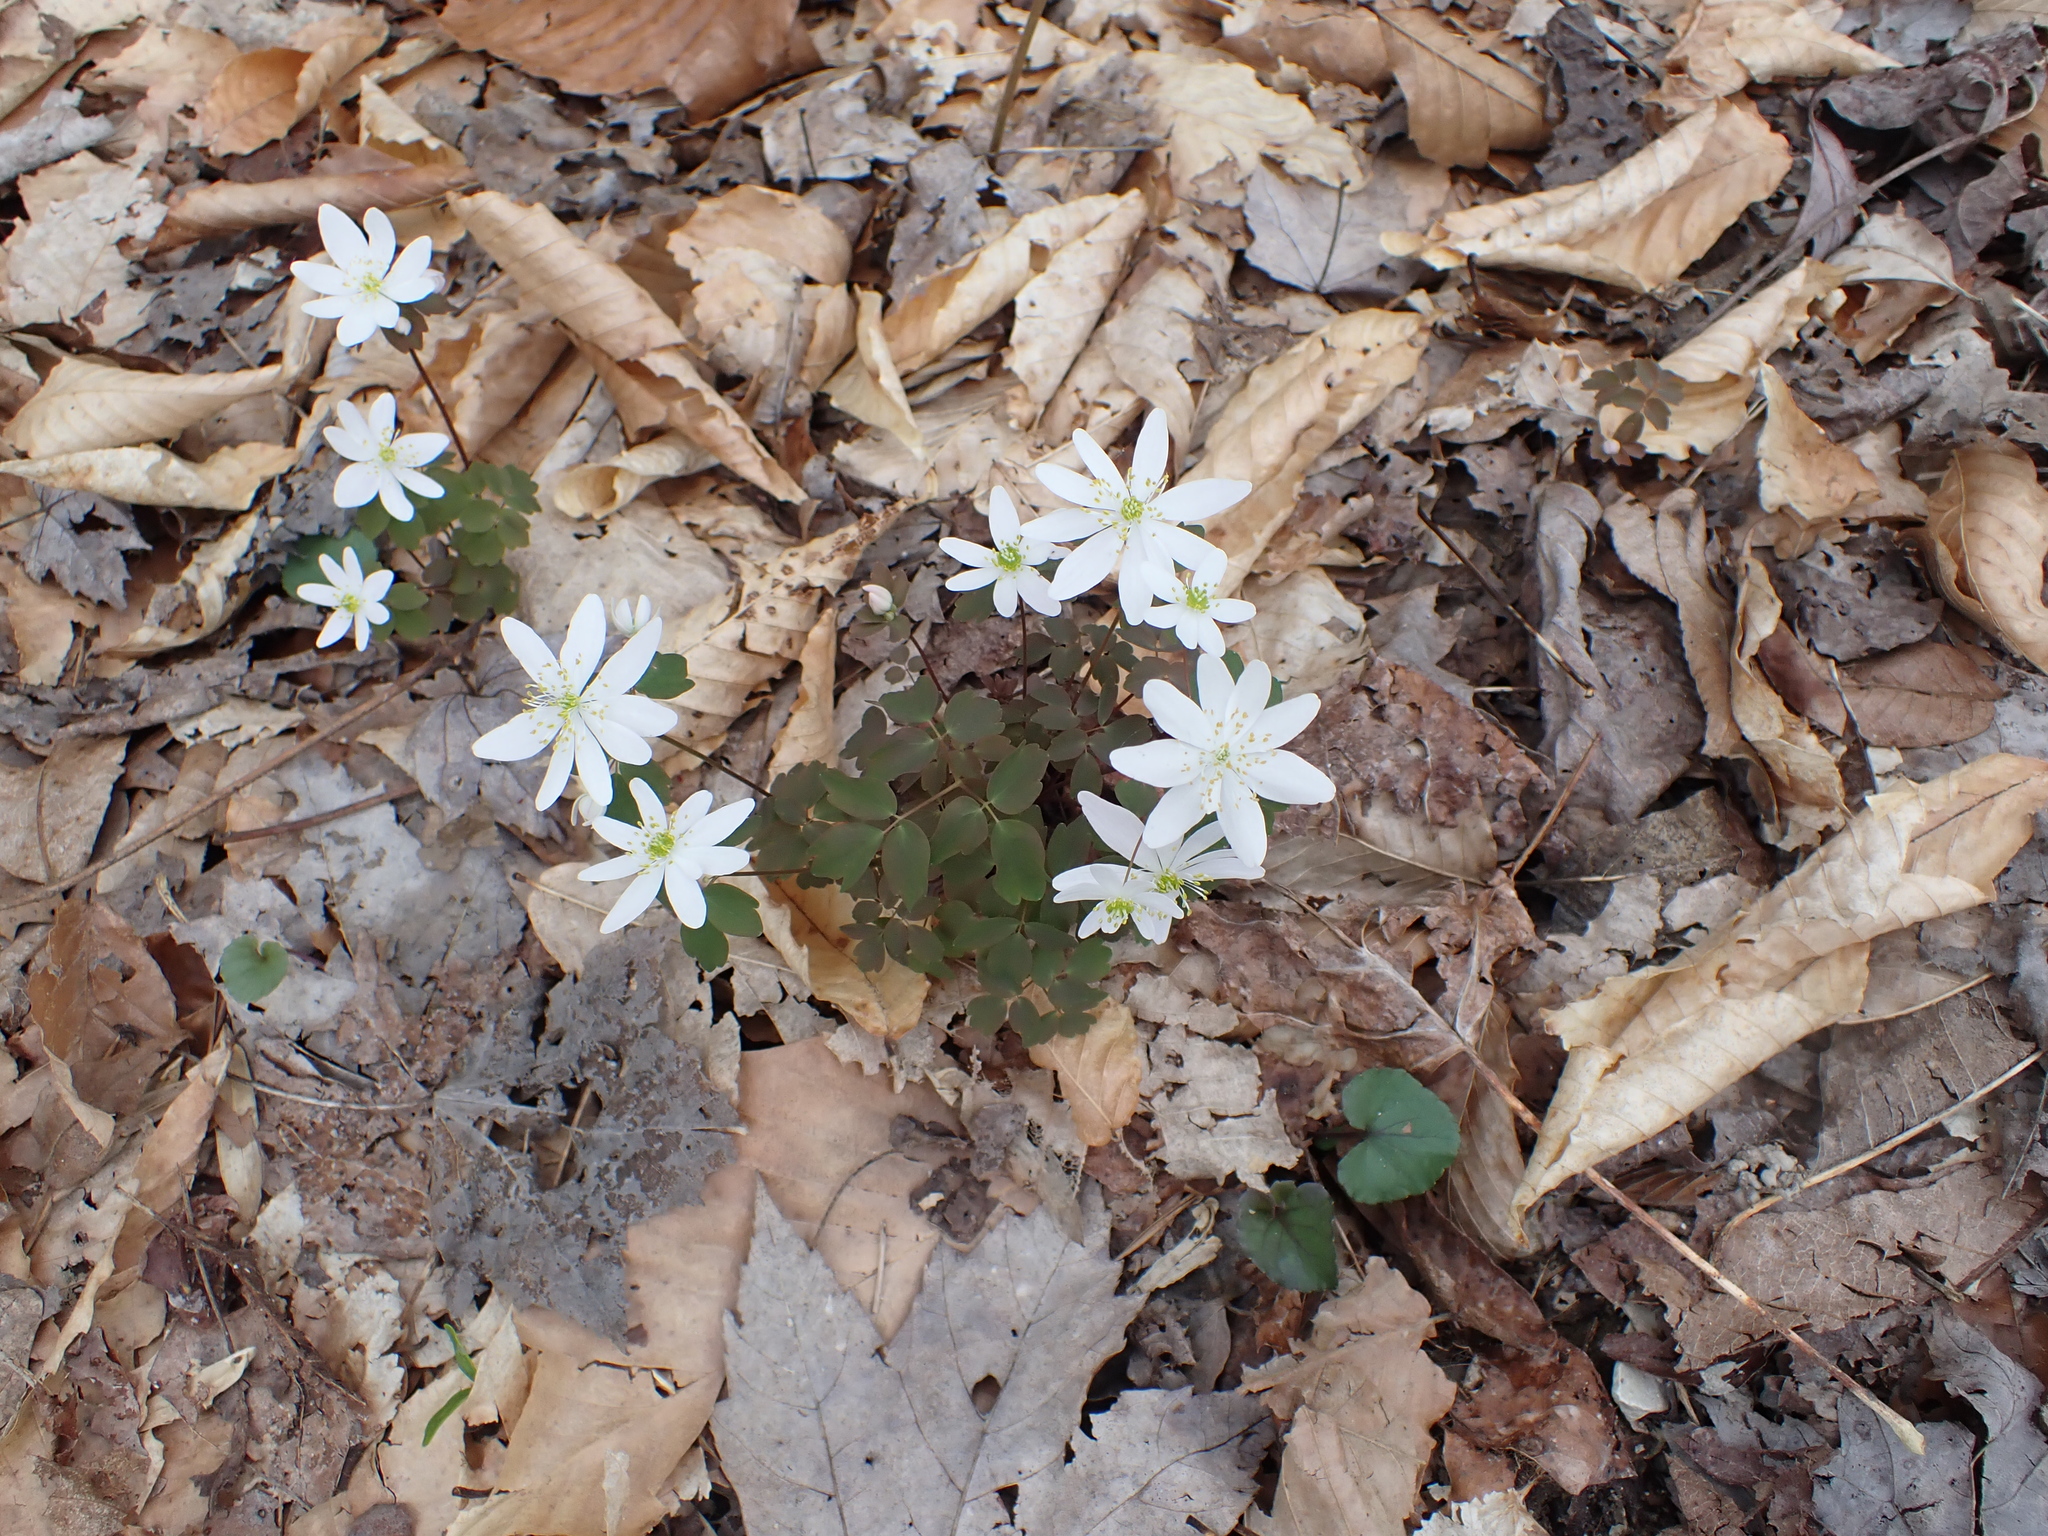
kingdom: Plantae
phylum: Tracheophyta
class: Magnoliopsida
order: Ranunculales
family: Ranunculaceae
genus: Thalictrum
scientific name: Thalictrum thalictroides
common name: Rue-anemone
